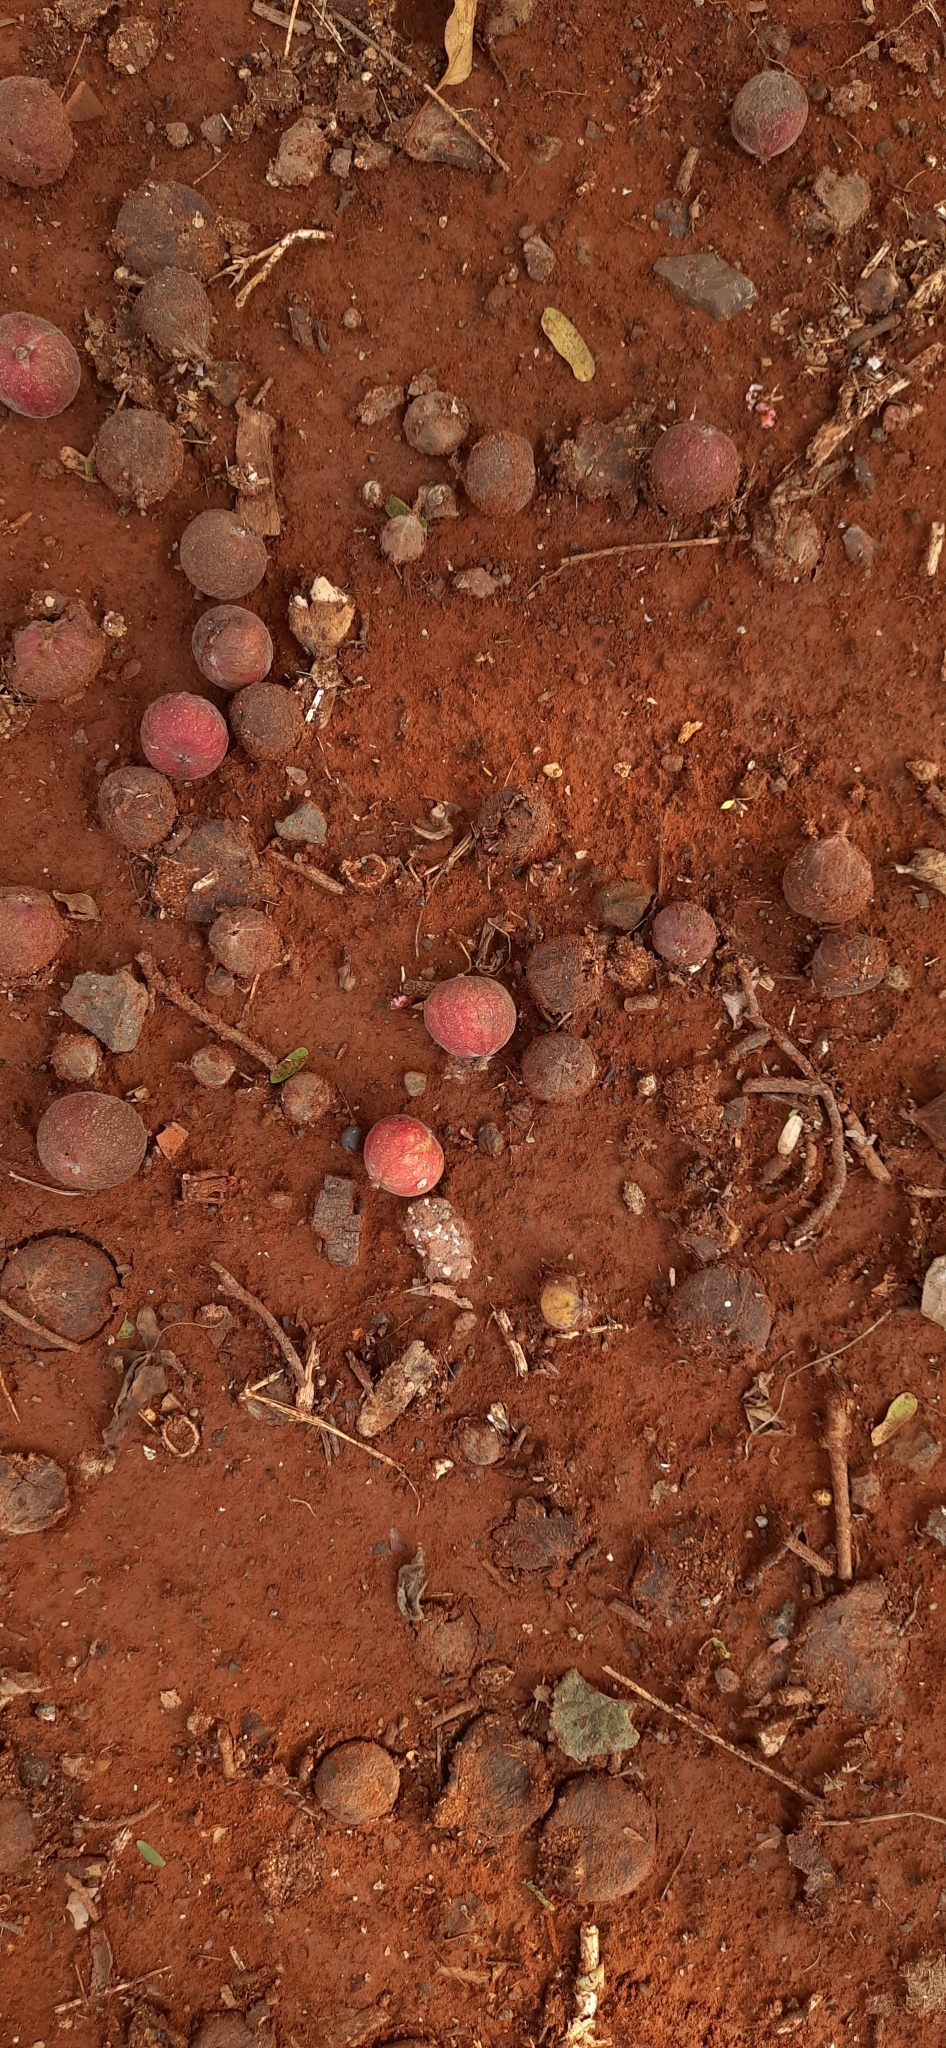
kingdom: Plantae
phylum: Tracheophyta
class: Magnoliopsida
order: Rosales
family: Moraceae
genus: Ficus
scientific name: Ficus racemosa
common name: Cluster fig
